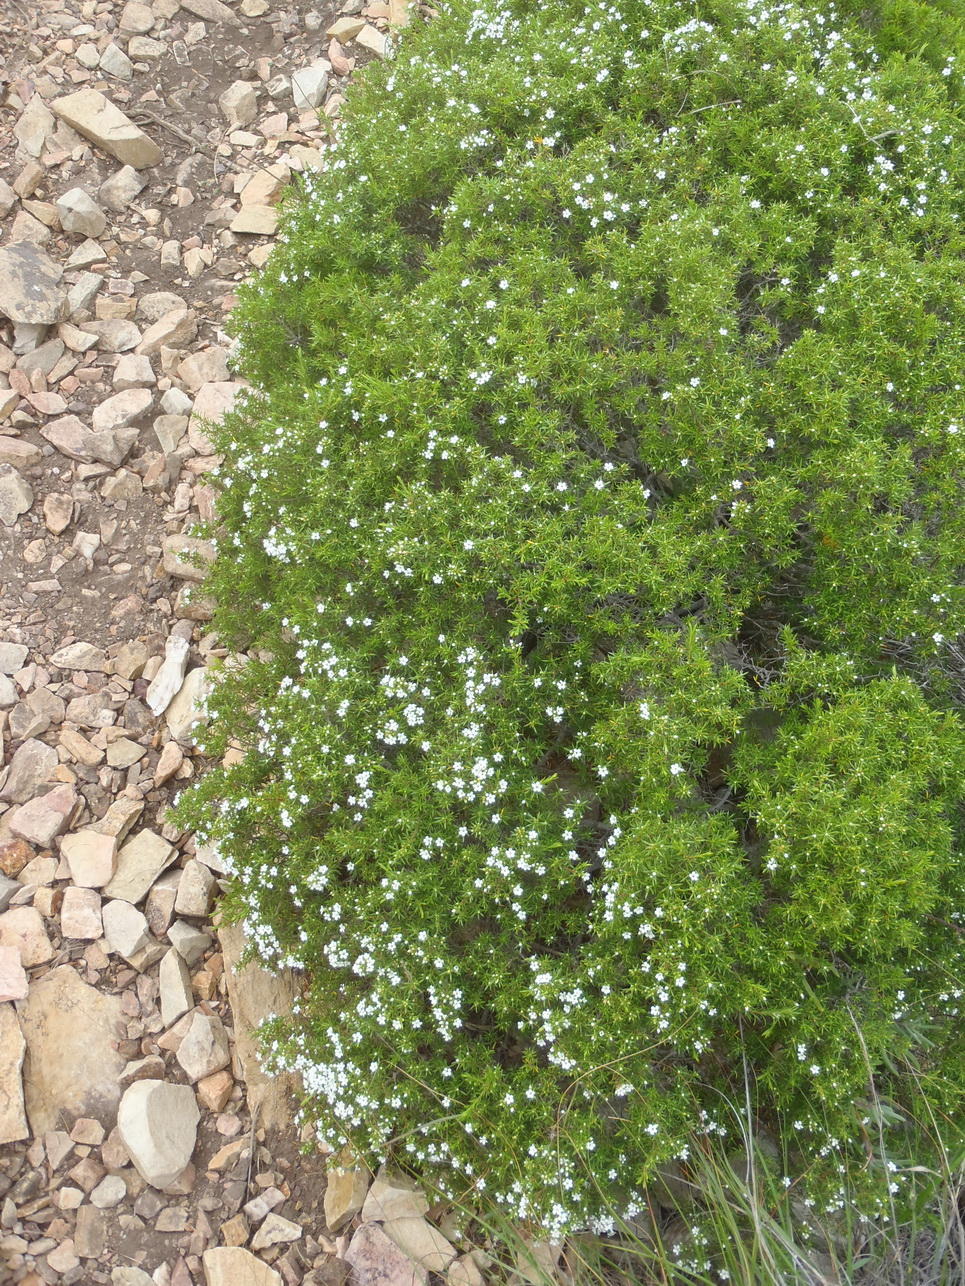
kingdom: Plantae
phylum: Tracheophyta
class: Magnoliopsida
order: Sapindales
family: Rutaceae
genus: Coleonema
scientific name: Coleonema album
